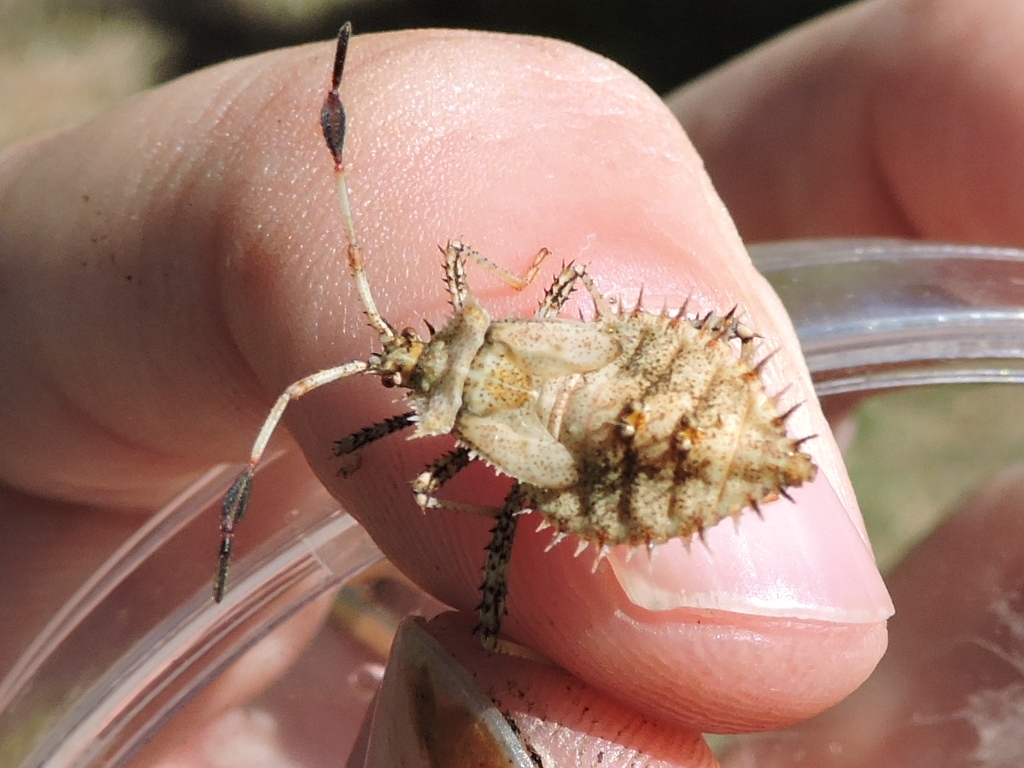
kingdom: Animalia
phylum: Arthropoda
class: Insecta
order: Hemiptera
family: Coreidae
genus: Euthochtha
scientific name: Euthochtha galeator
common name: Helmeted squash bug
